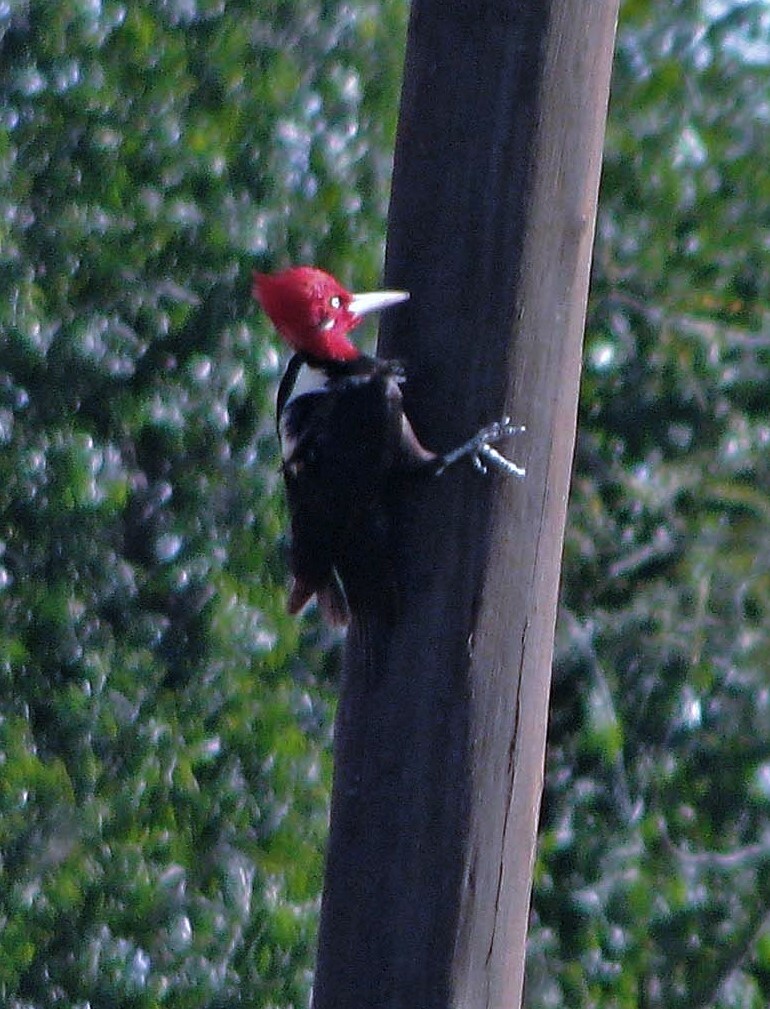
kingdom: Animalia
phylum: Chordata
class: Aves
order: Piciformes
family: Picidae
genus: Campephilus
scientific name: Campephilus leucopogon
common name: Cream-backed woodpecker
